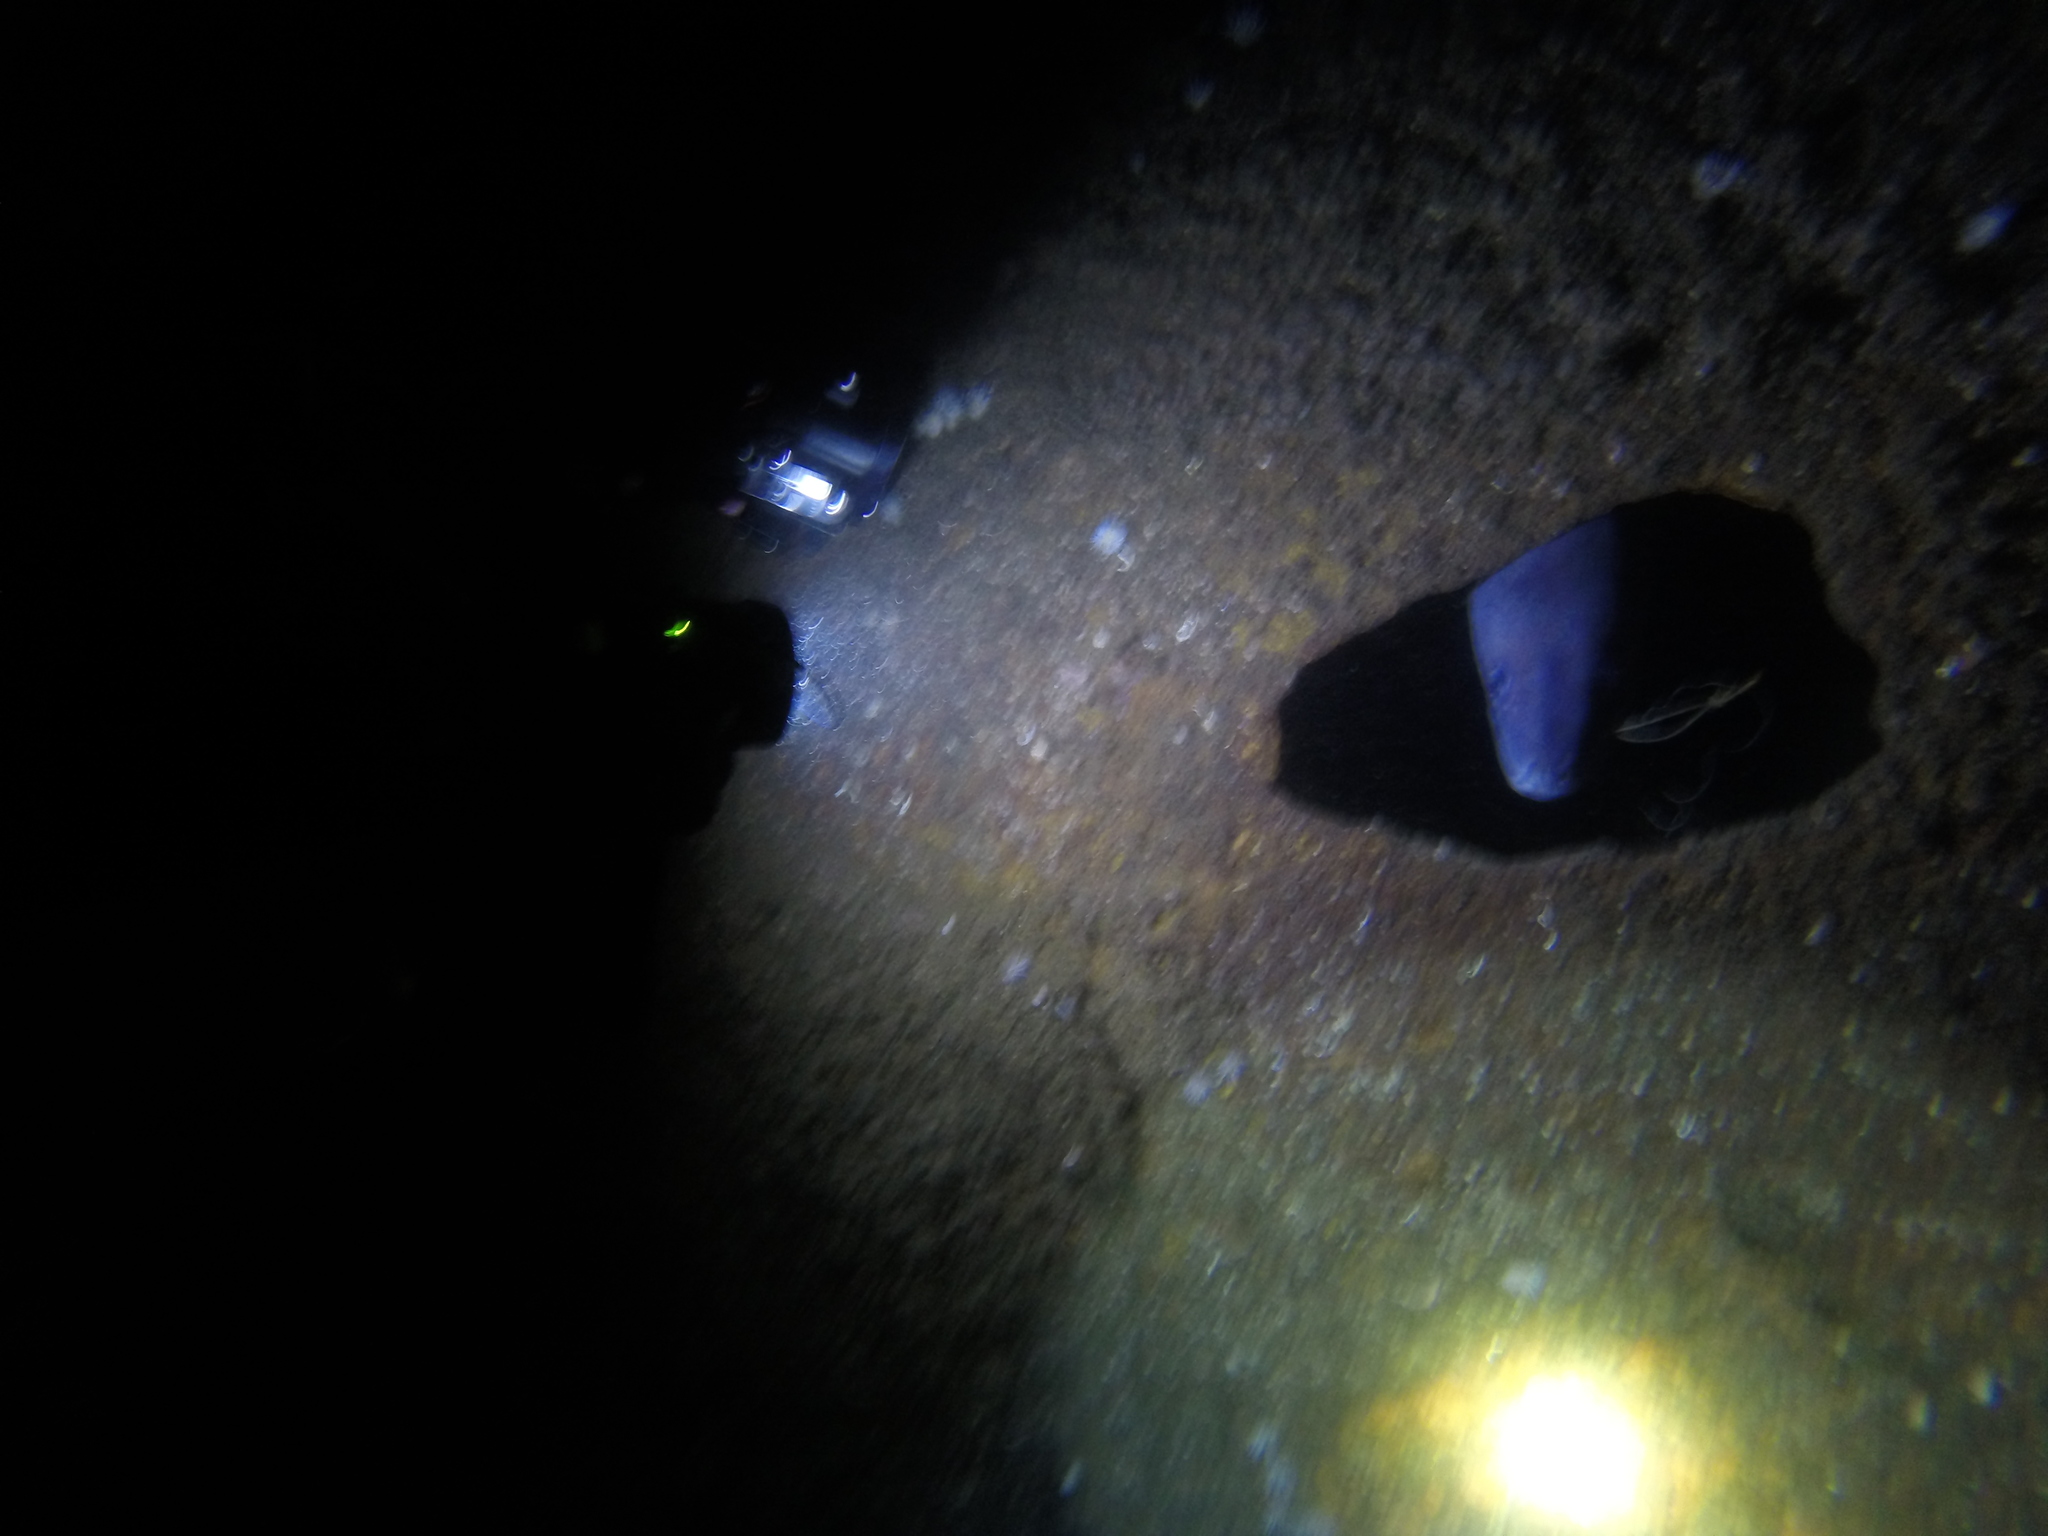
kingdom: Animalia
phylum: Chordata
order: Anguilliformes
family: Congridae
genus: Conger
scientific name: Conger conger
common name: Conger eel
